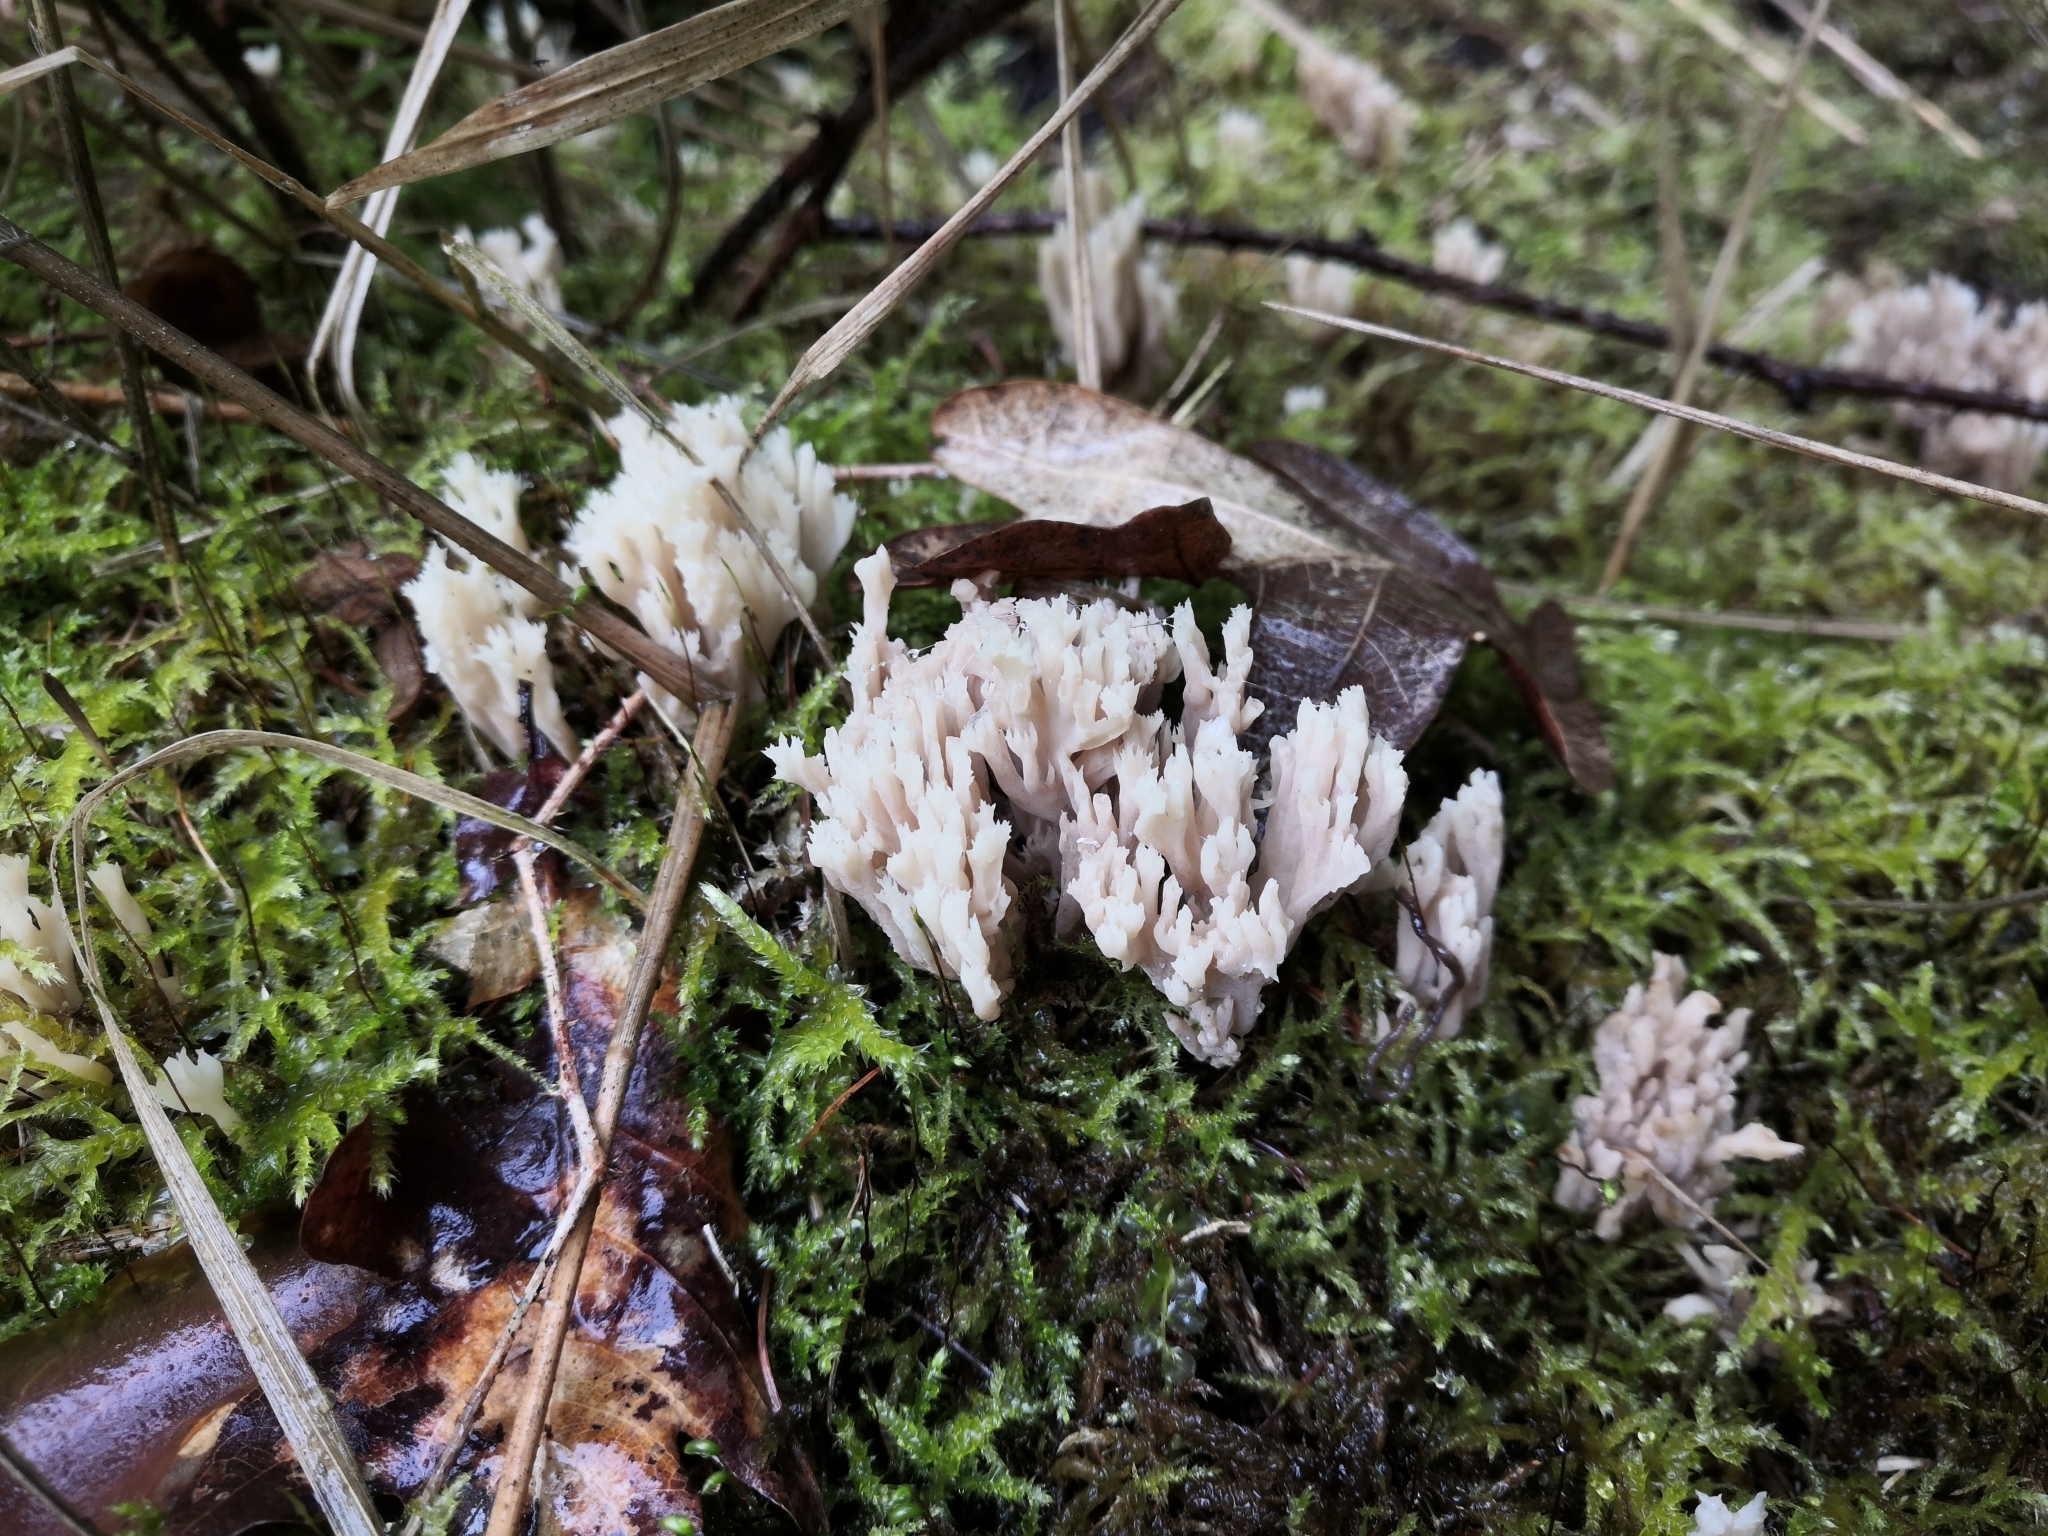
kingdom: Fungi
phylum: Basidiomycota
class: Agaricomycetes
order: Cantharellales
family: Hydnaceae
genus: Clavulina
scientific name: Clavulina coralloides
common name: Crested coral
